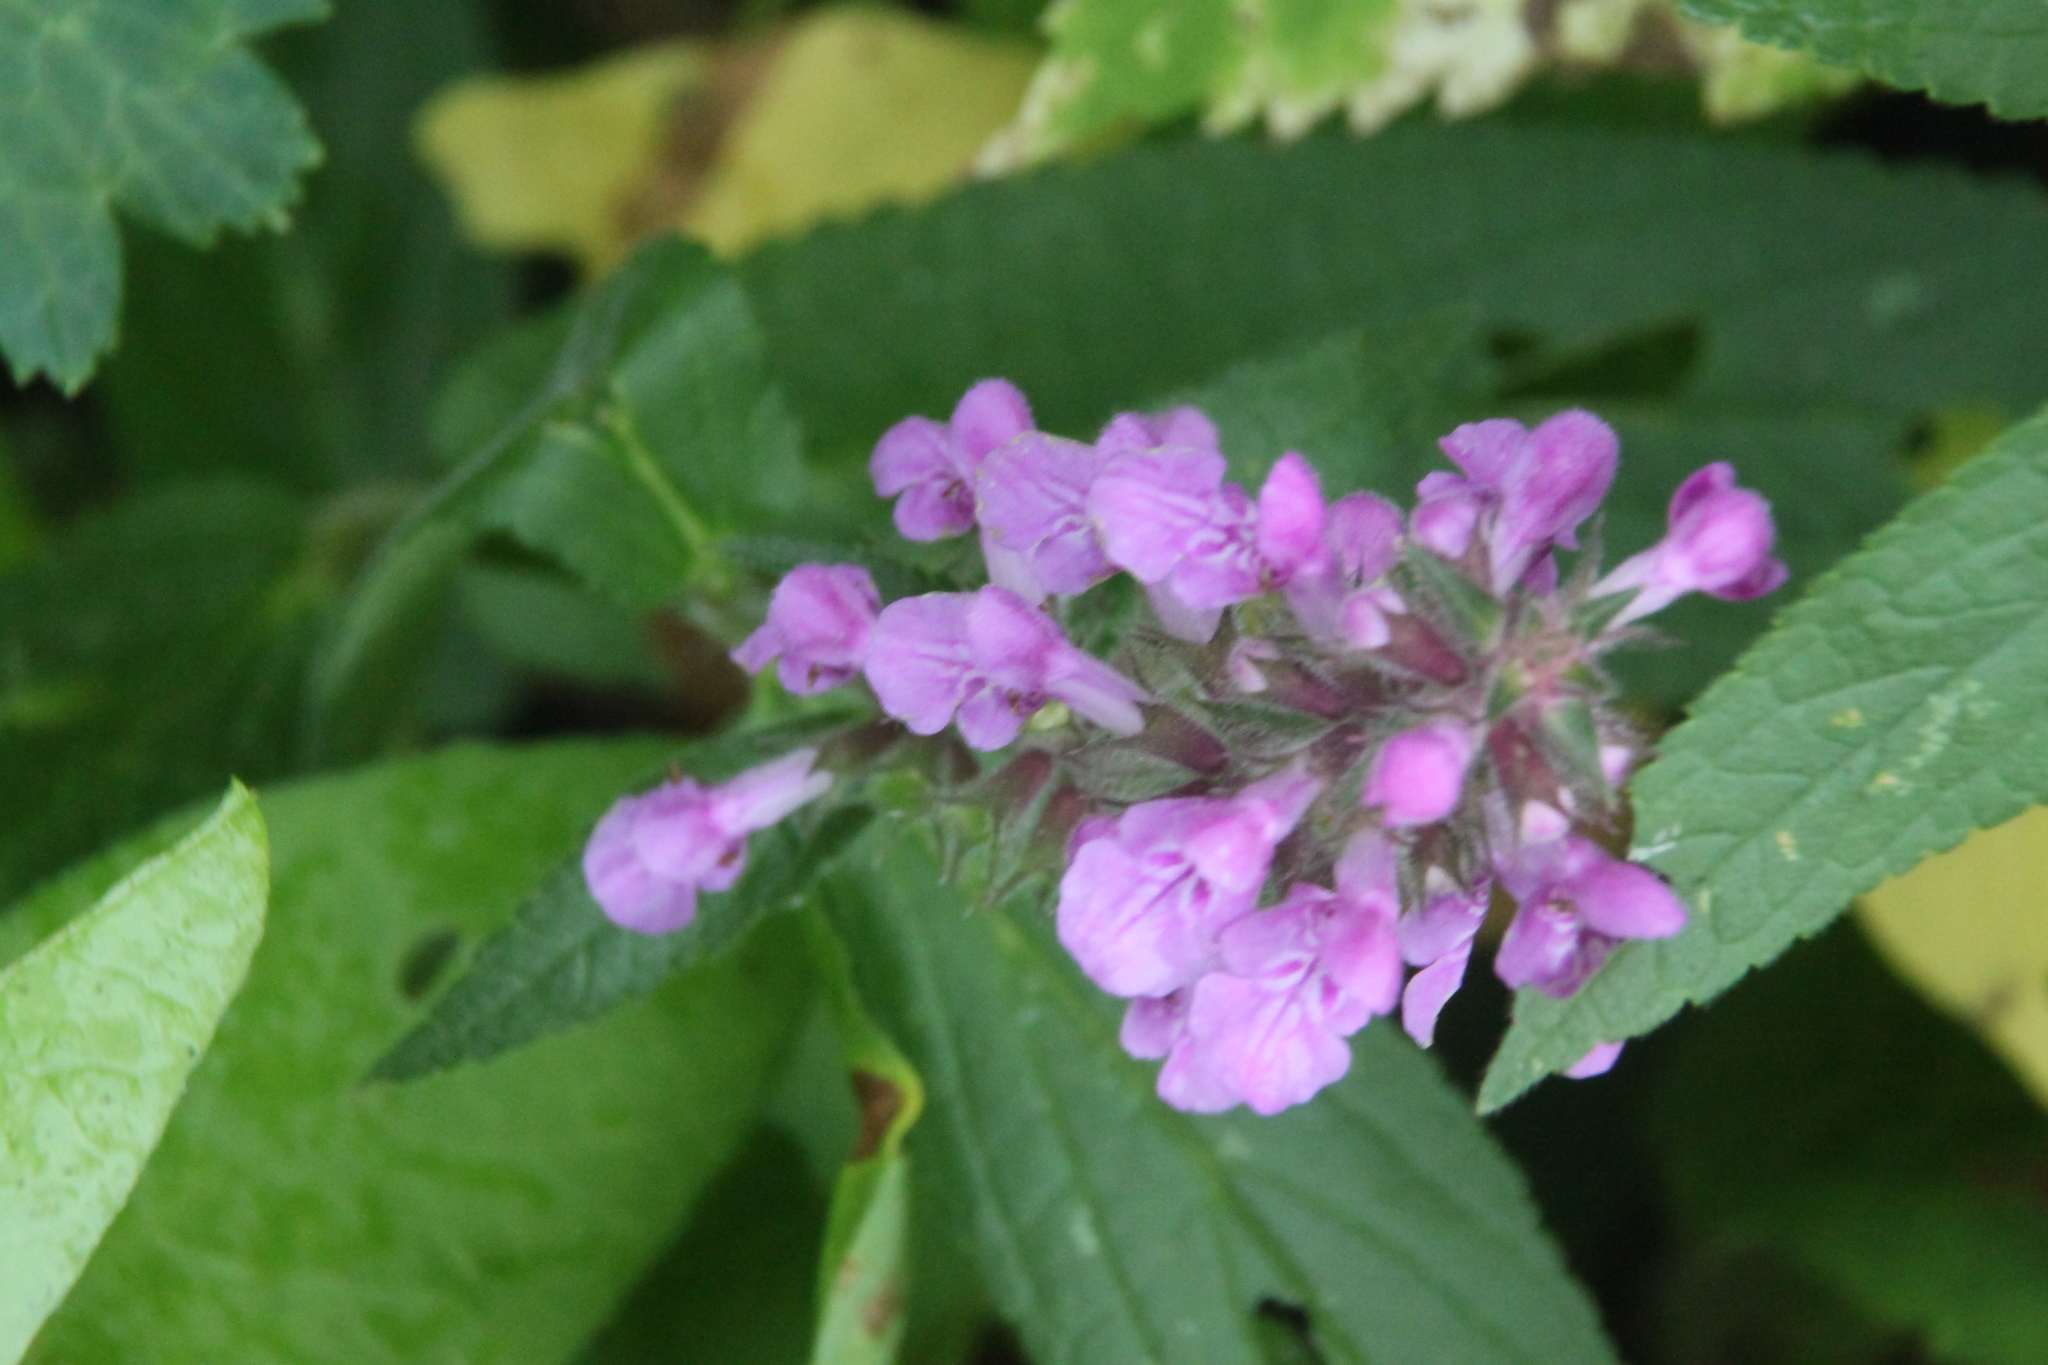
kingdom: Plantae
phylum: Tracheophyta
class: Magnoliopsida
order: Lamiales
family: Lamiaceae
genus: Stachys
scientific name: Stachys palustris
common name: Marsh woundwort
